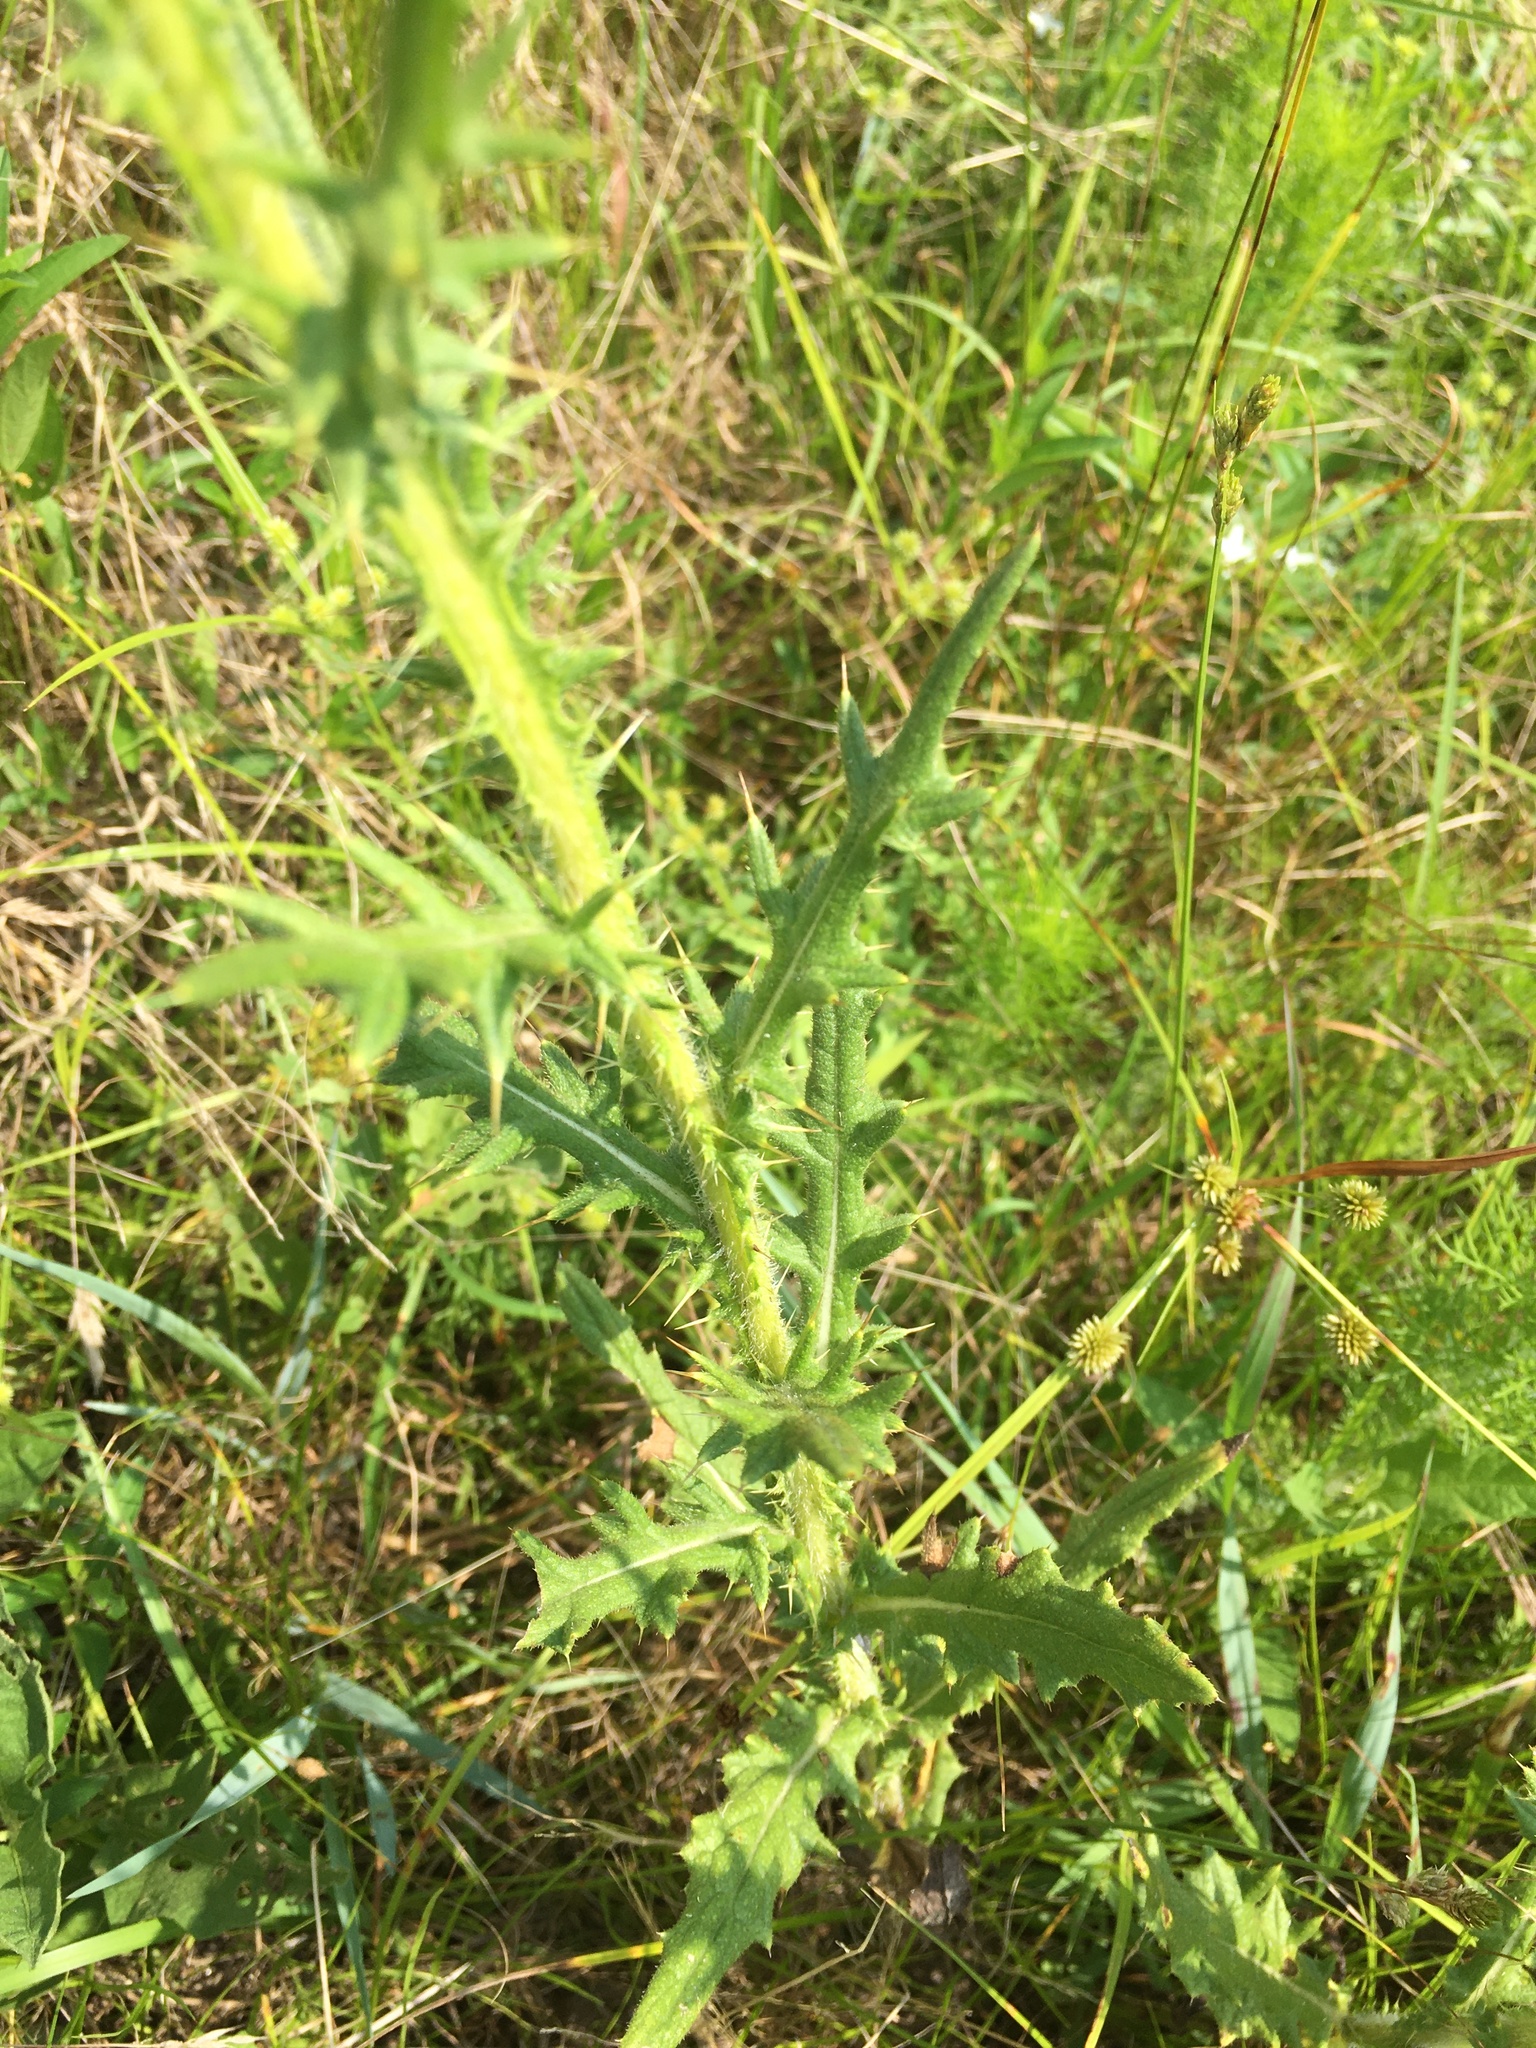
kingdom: Plantae
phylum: Tracheophyta
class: Magnoliopsida
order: Asterales
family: Asteraceae
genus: Cirsium
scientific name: Cirsium vulgare
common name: Bull thistle
